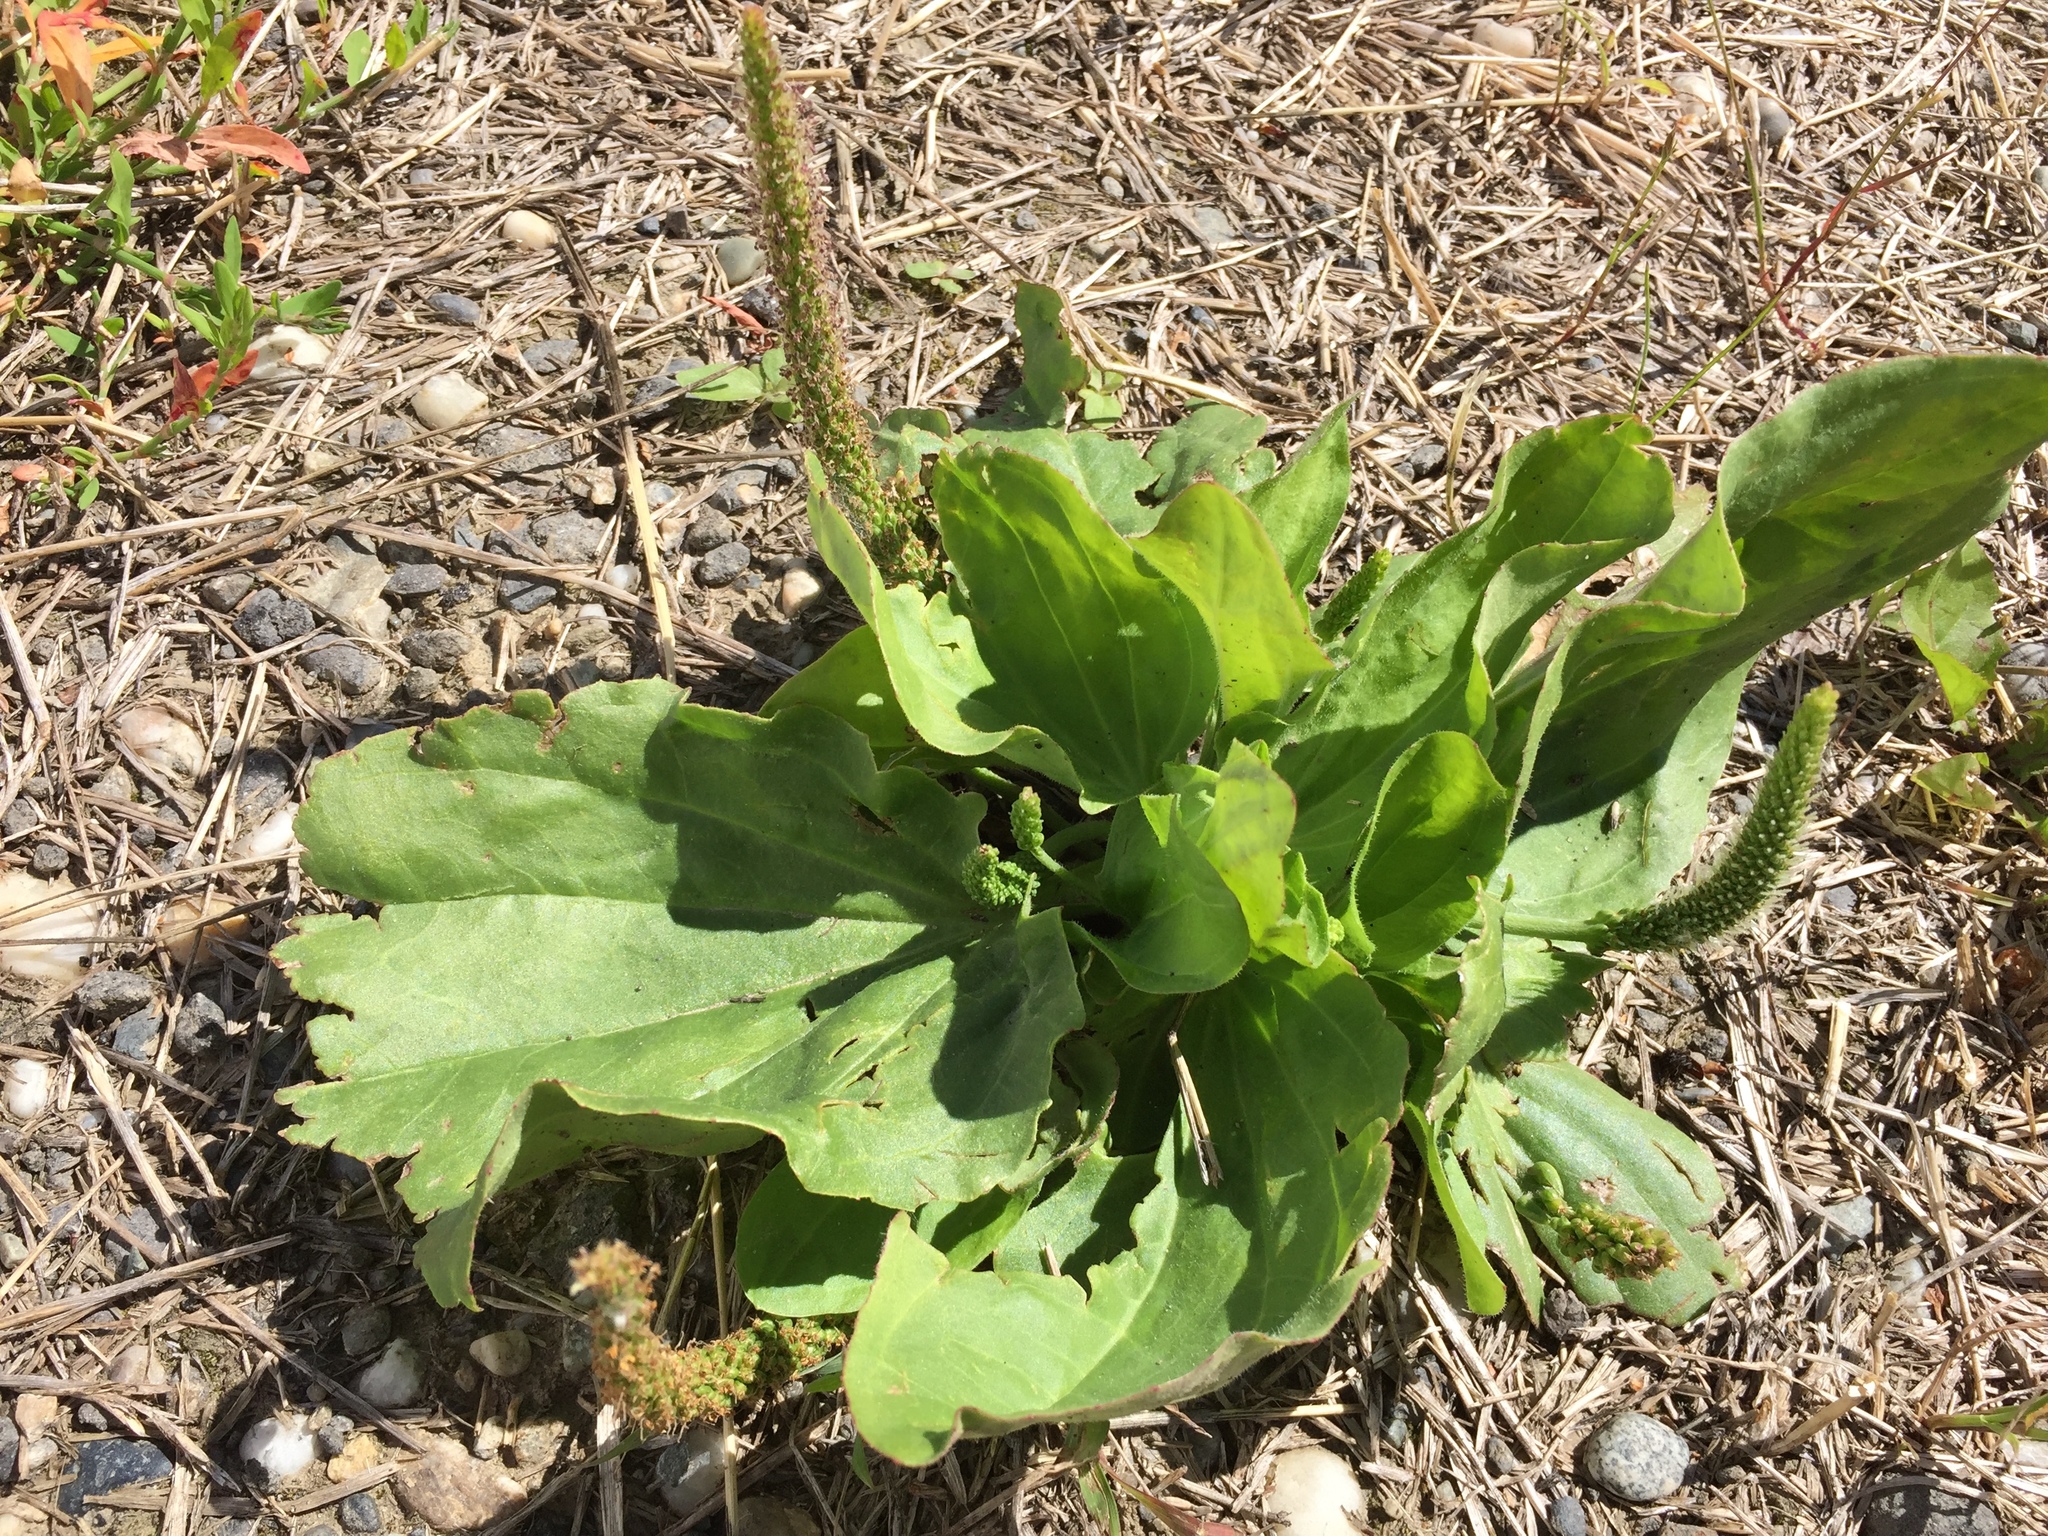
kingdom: Plantae
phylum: Tracheophyta
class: Magnoliopsida
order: Lamiales
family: Plantaginaceae
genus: Plantago
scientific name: Plantago major
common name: Common plantain
